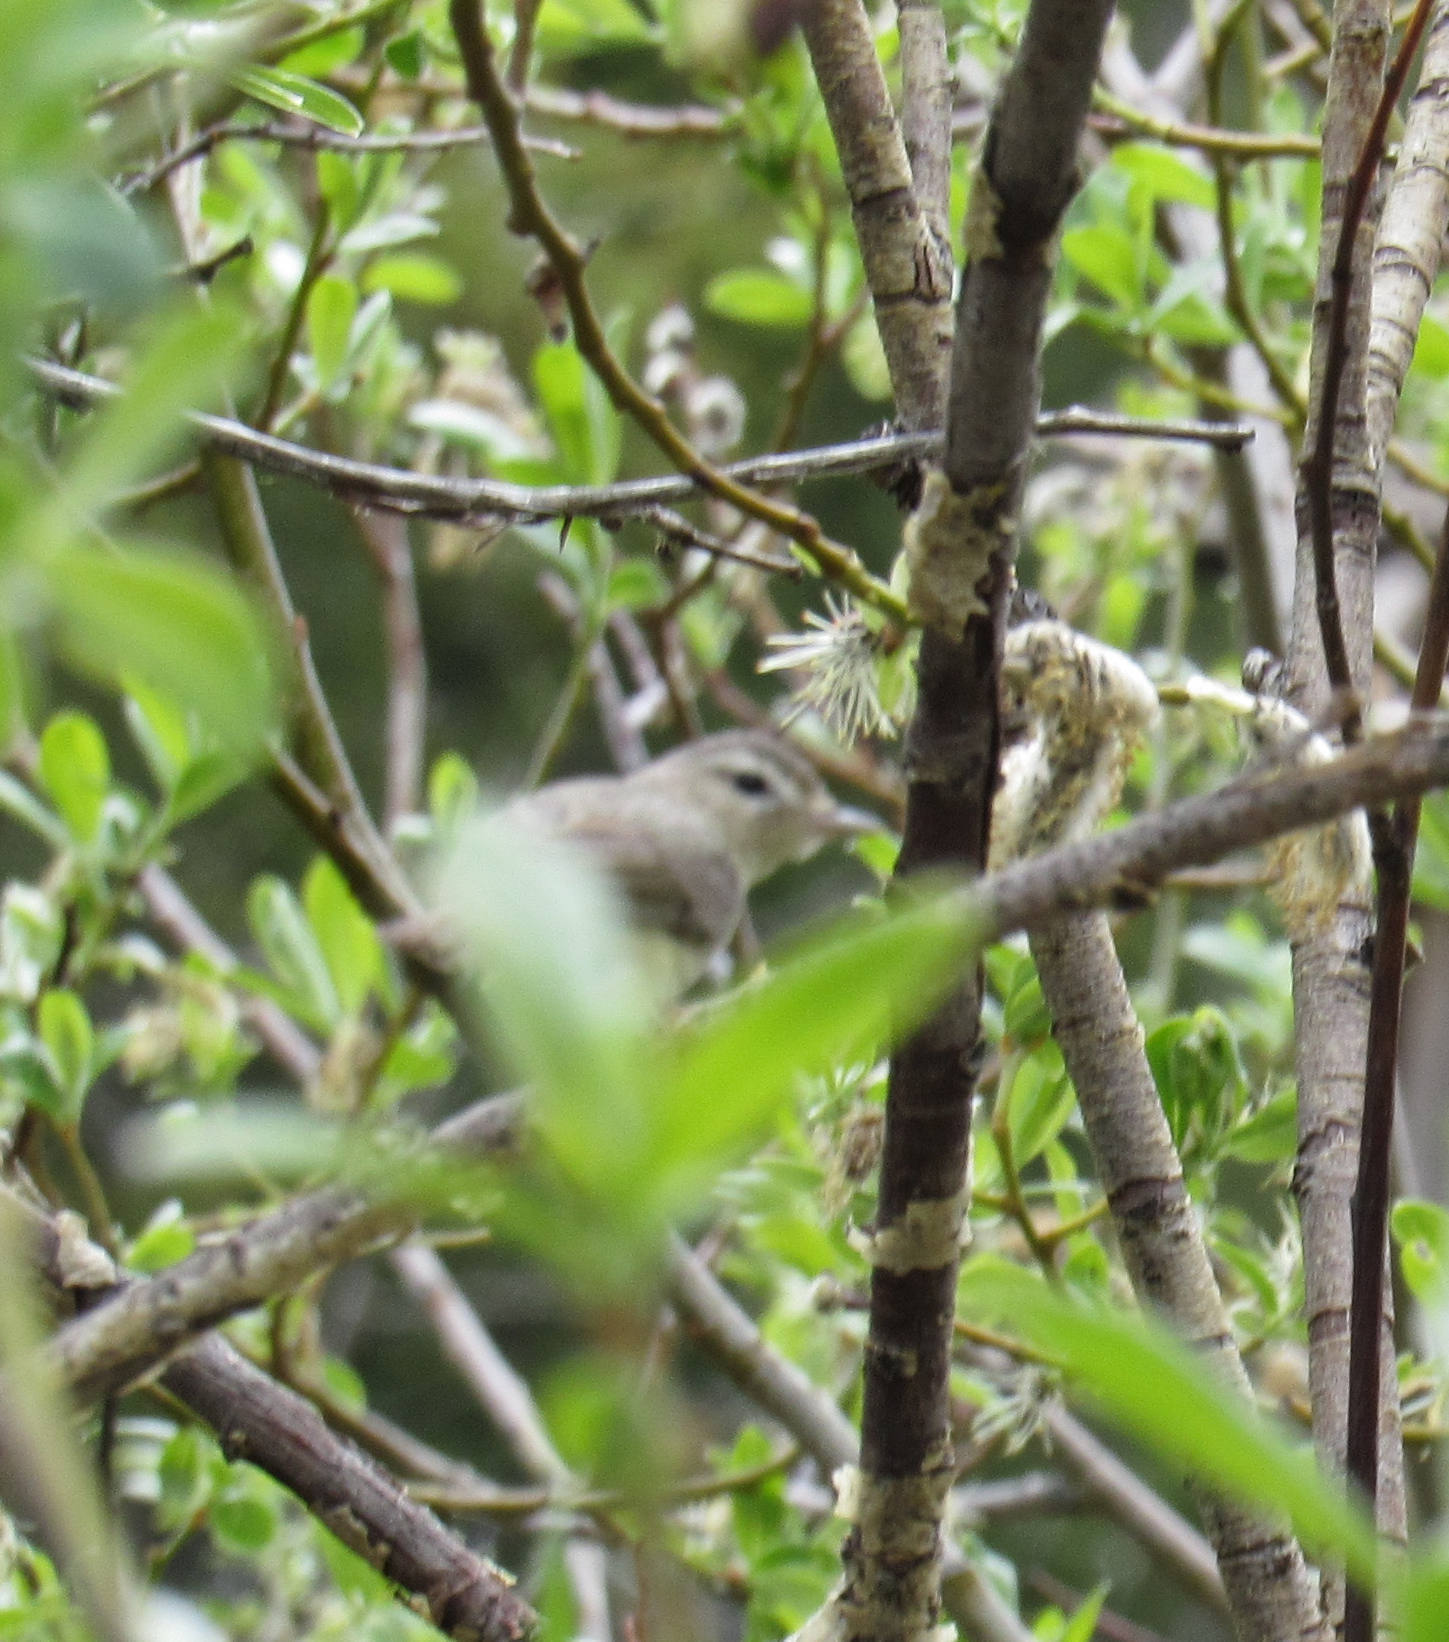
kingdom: Animalia
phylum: Chordata
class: Aves
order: Passeriformes
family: Vireonidae
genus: Vireo
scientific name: Vireo gilvus
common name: Warbling vireo
